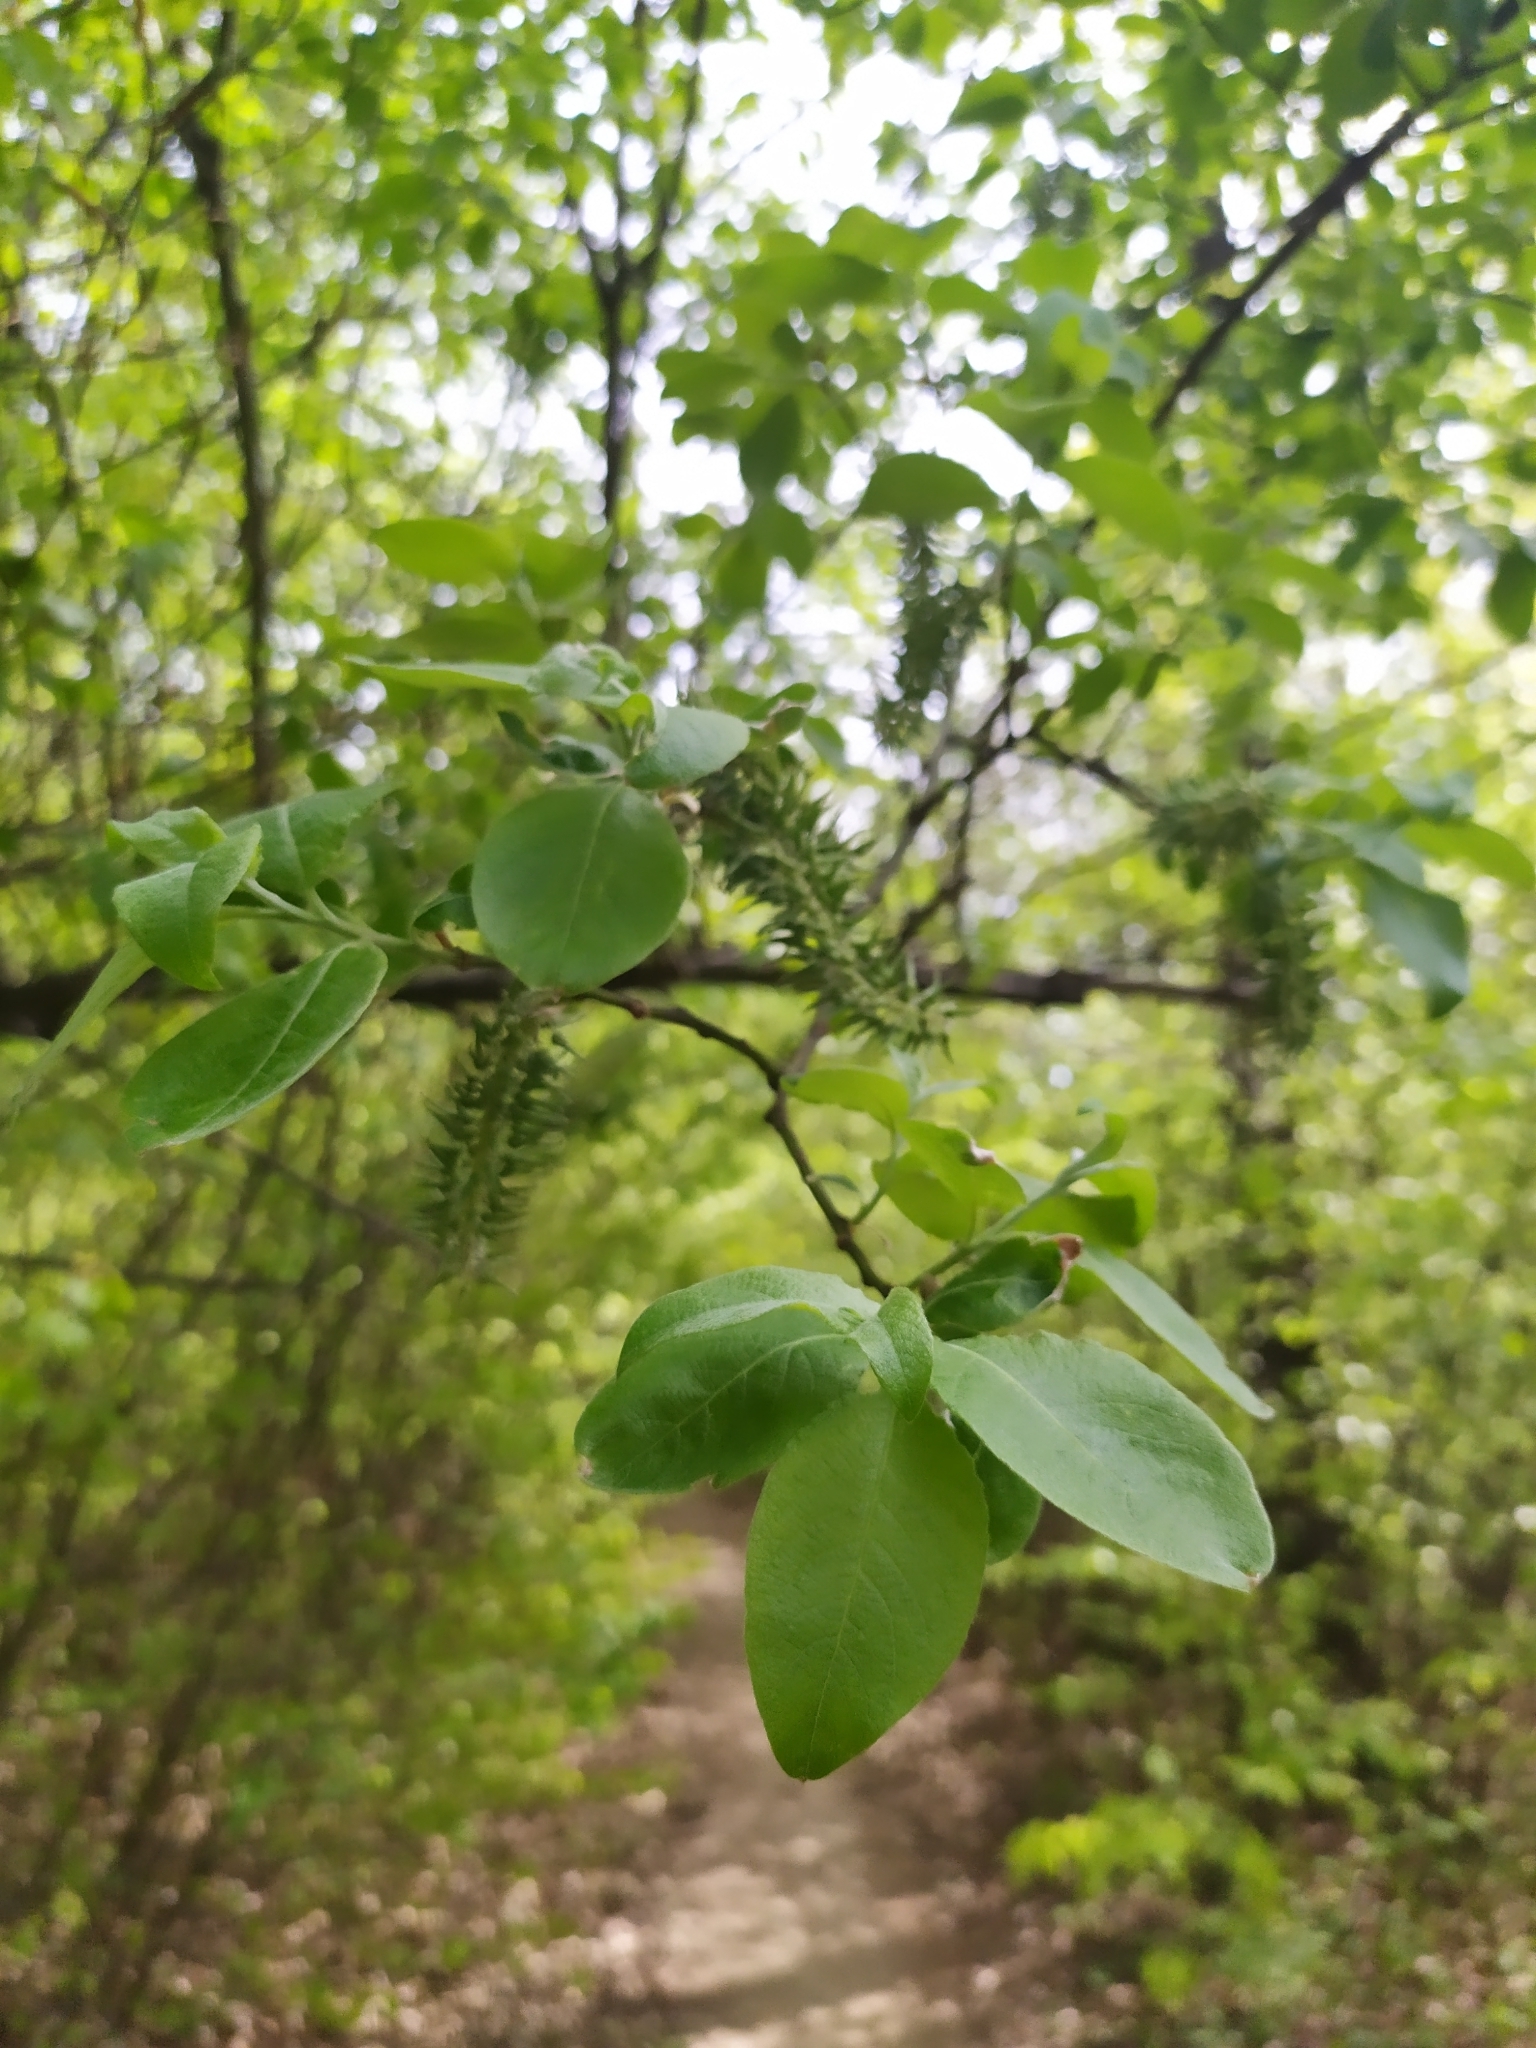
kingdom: Plantae
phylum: Tracheophyta
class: Magnoliopsida
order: Malpighiales
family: Salicaceae
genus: Salix
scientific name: Salix caprea
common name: Goat willow
